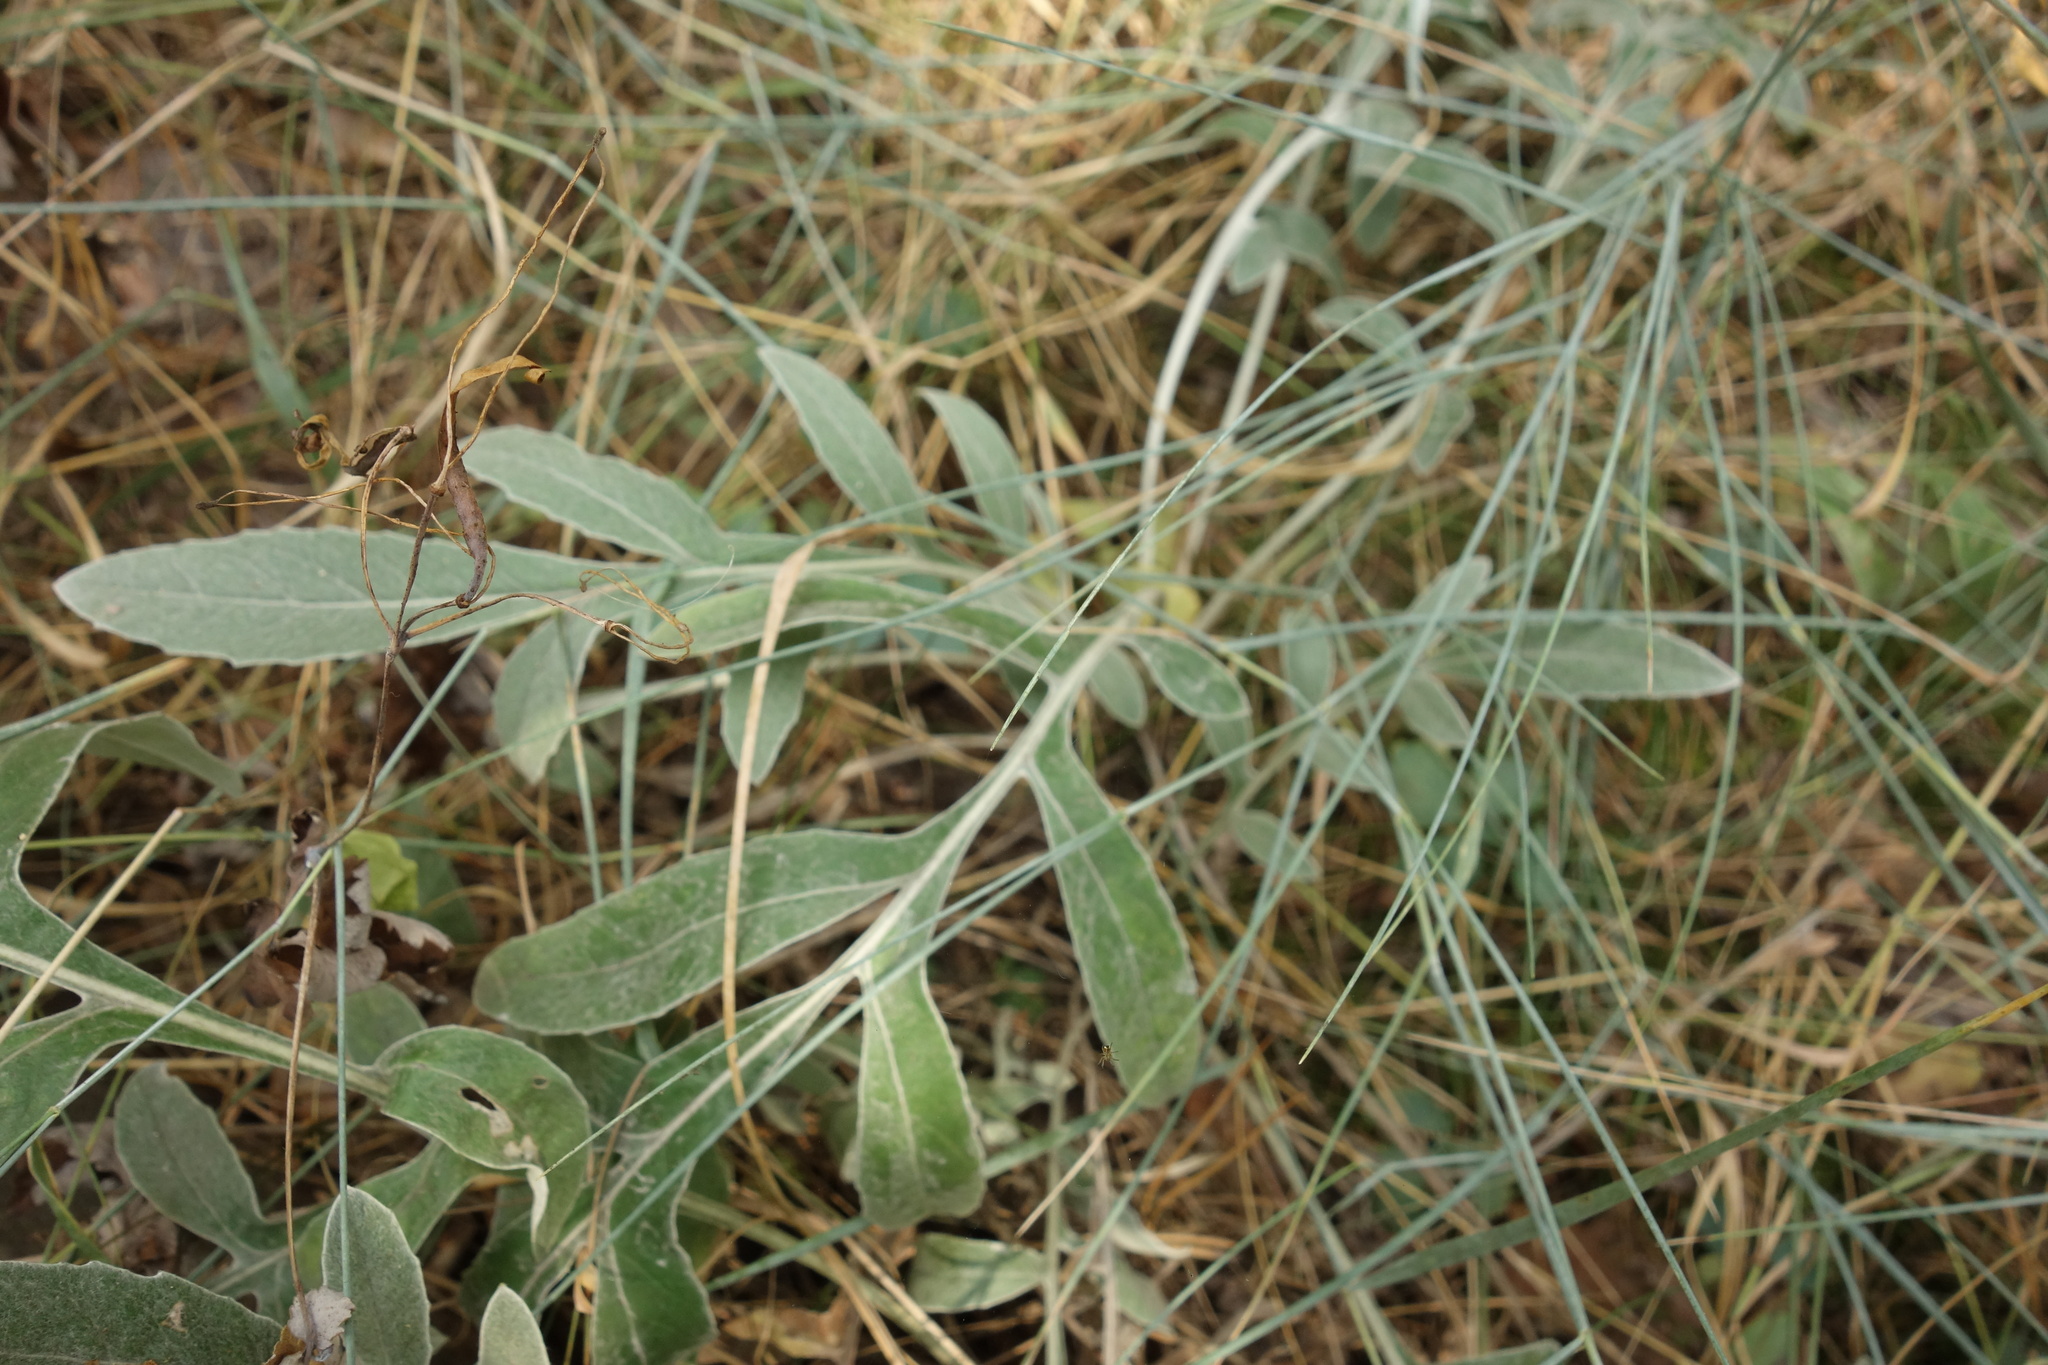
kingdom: Plantae
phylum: Tracheophyta
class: Magnoliopsida
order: Asterales
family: Asteraceae
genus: Psephellus
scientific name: Psephellus sumensis
